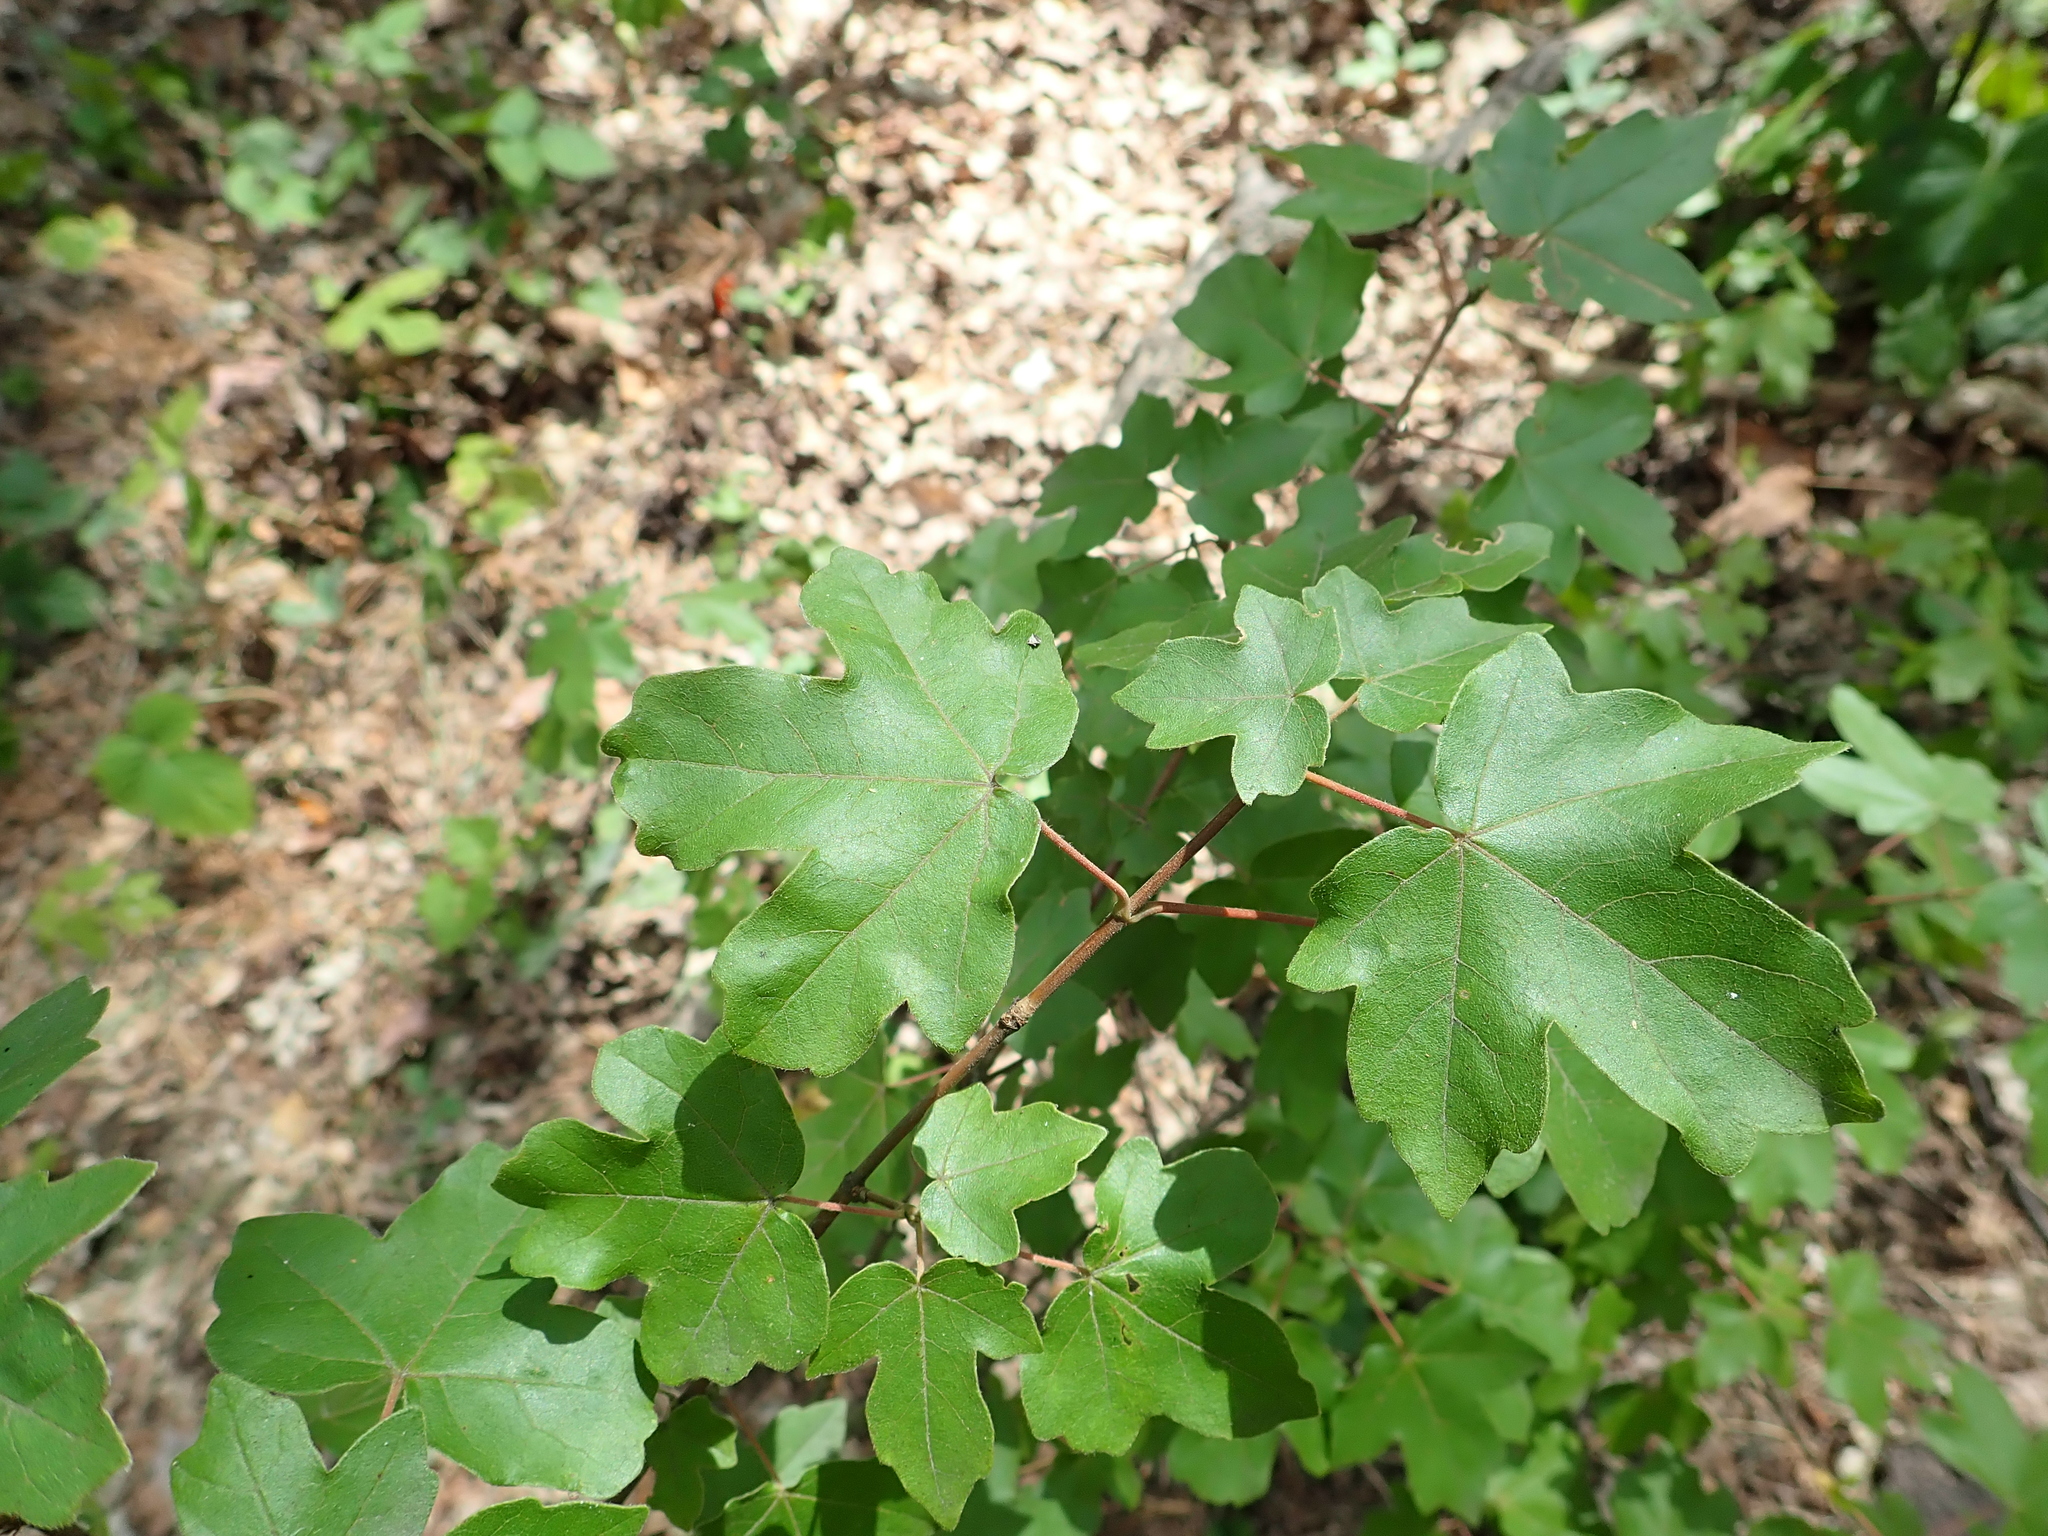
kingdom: Plantae
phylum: Tracheophyta
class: Magnoliopsida
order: Sapindales
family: Sapindaceae
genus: Acer
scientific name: Acer campestre
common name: Field maple
